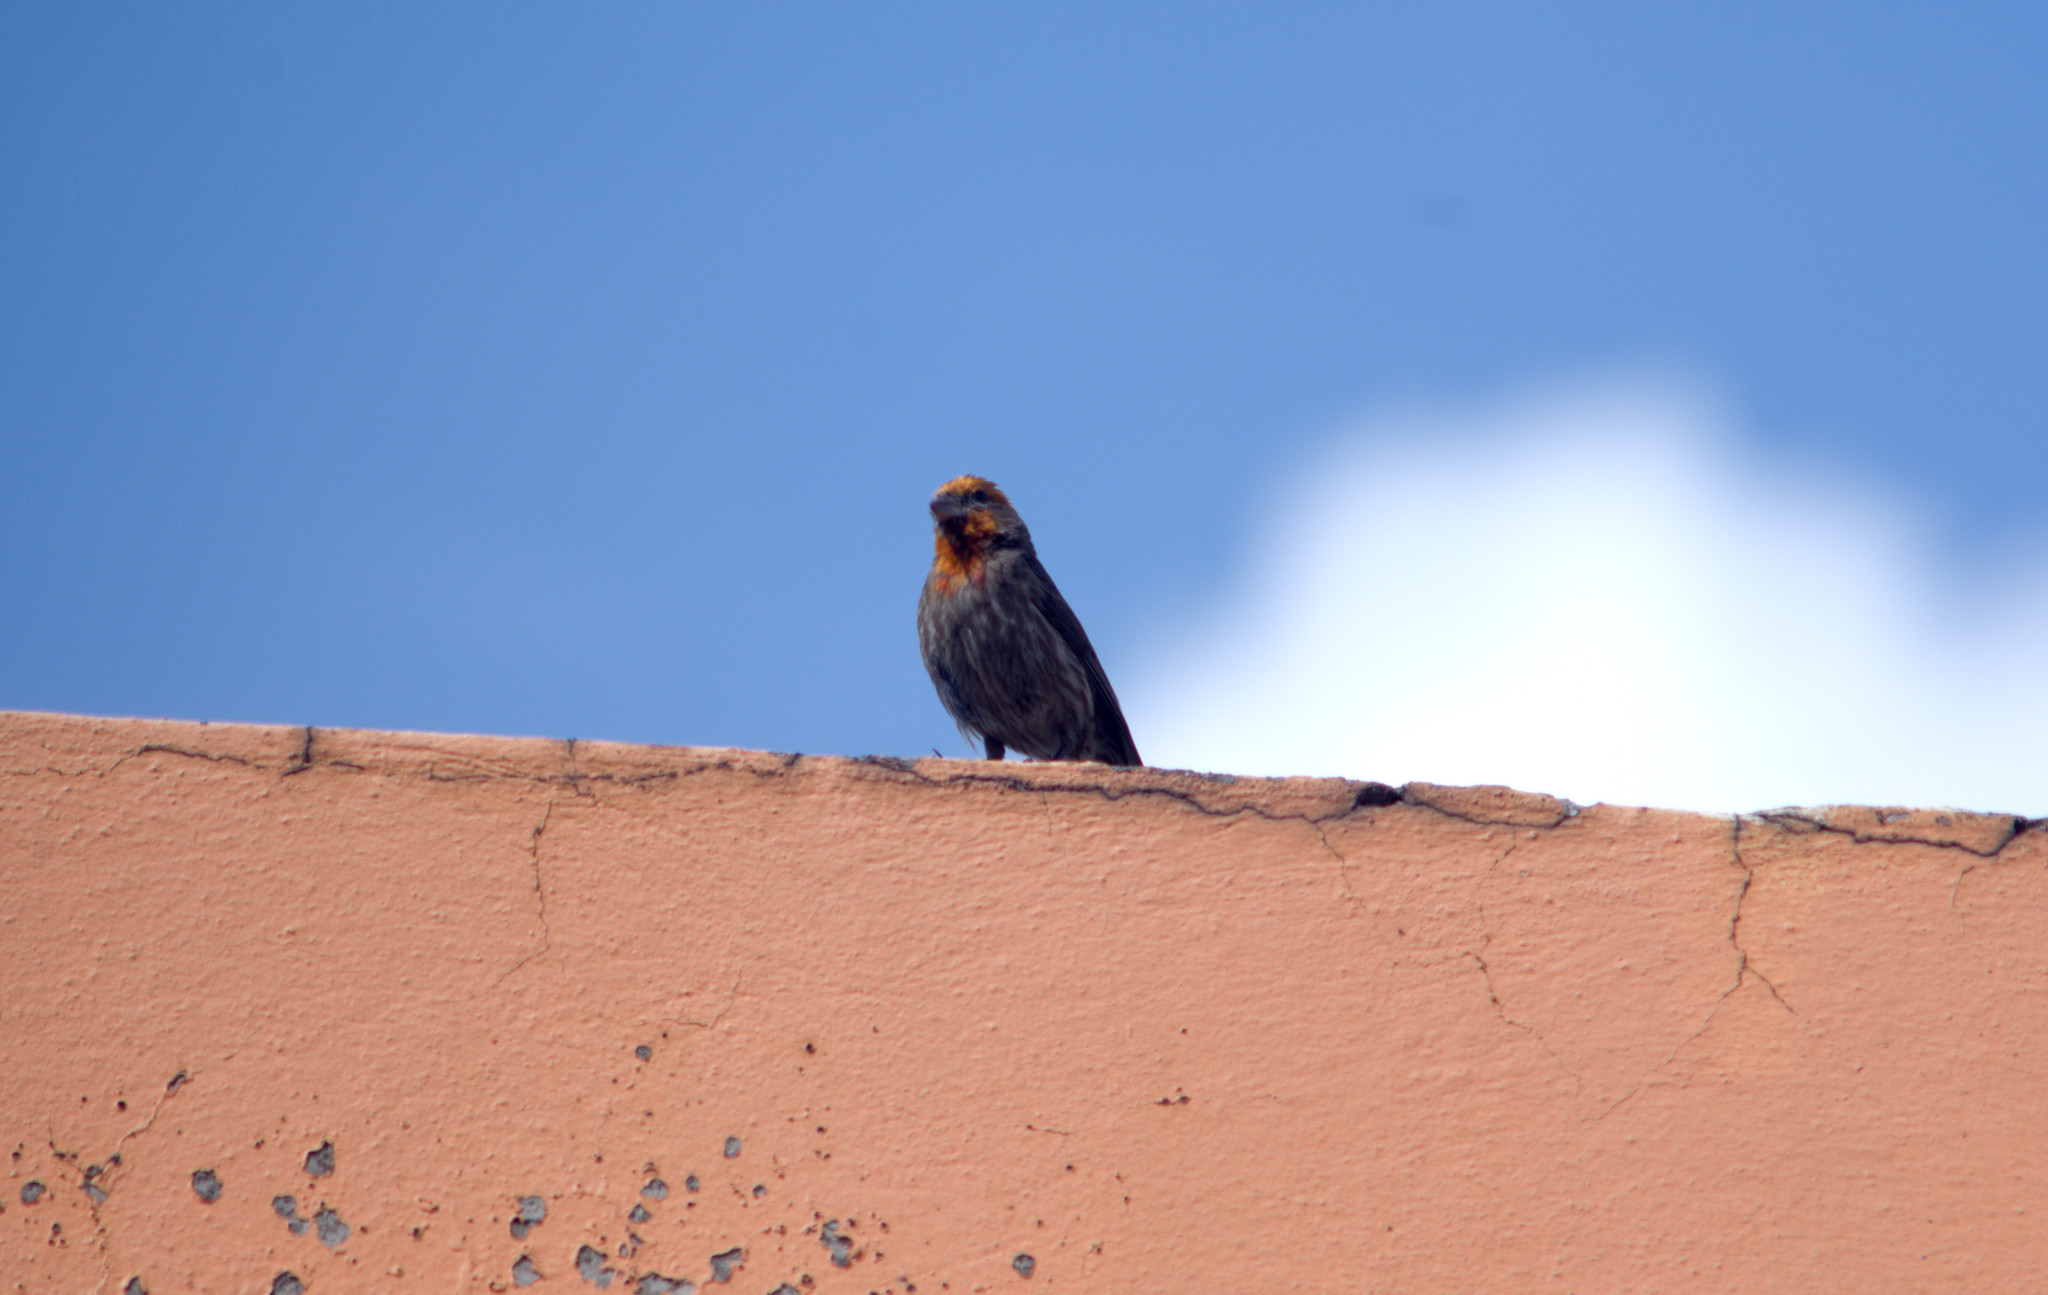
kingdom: Animalia
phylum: Chordata
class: Aves
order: Passeriformes
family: Fringillidae
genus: Haemorhous
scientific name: Haemorhous mexicanus
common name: House finch
